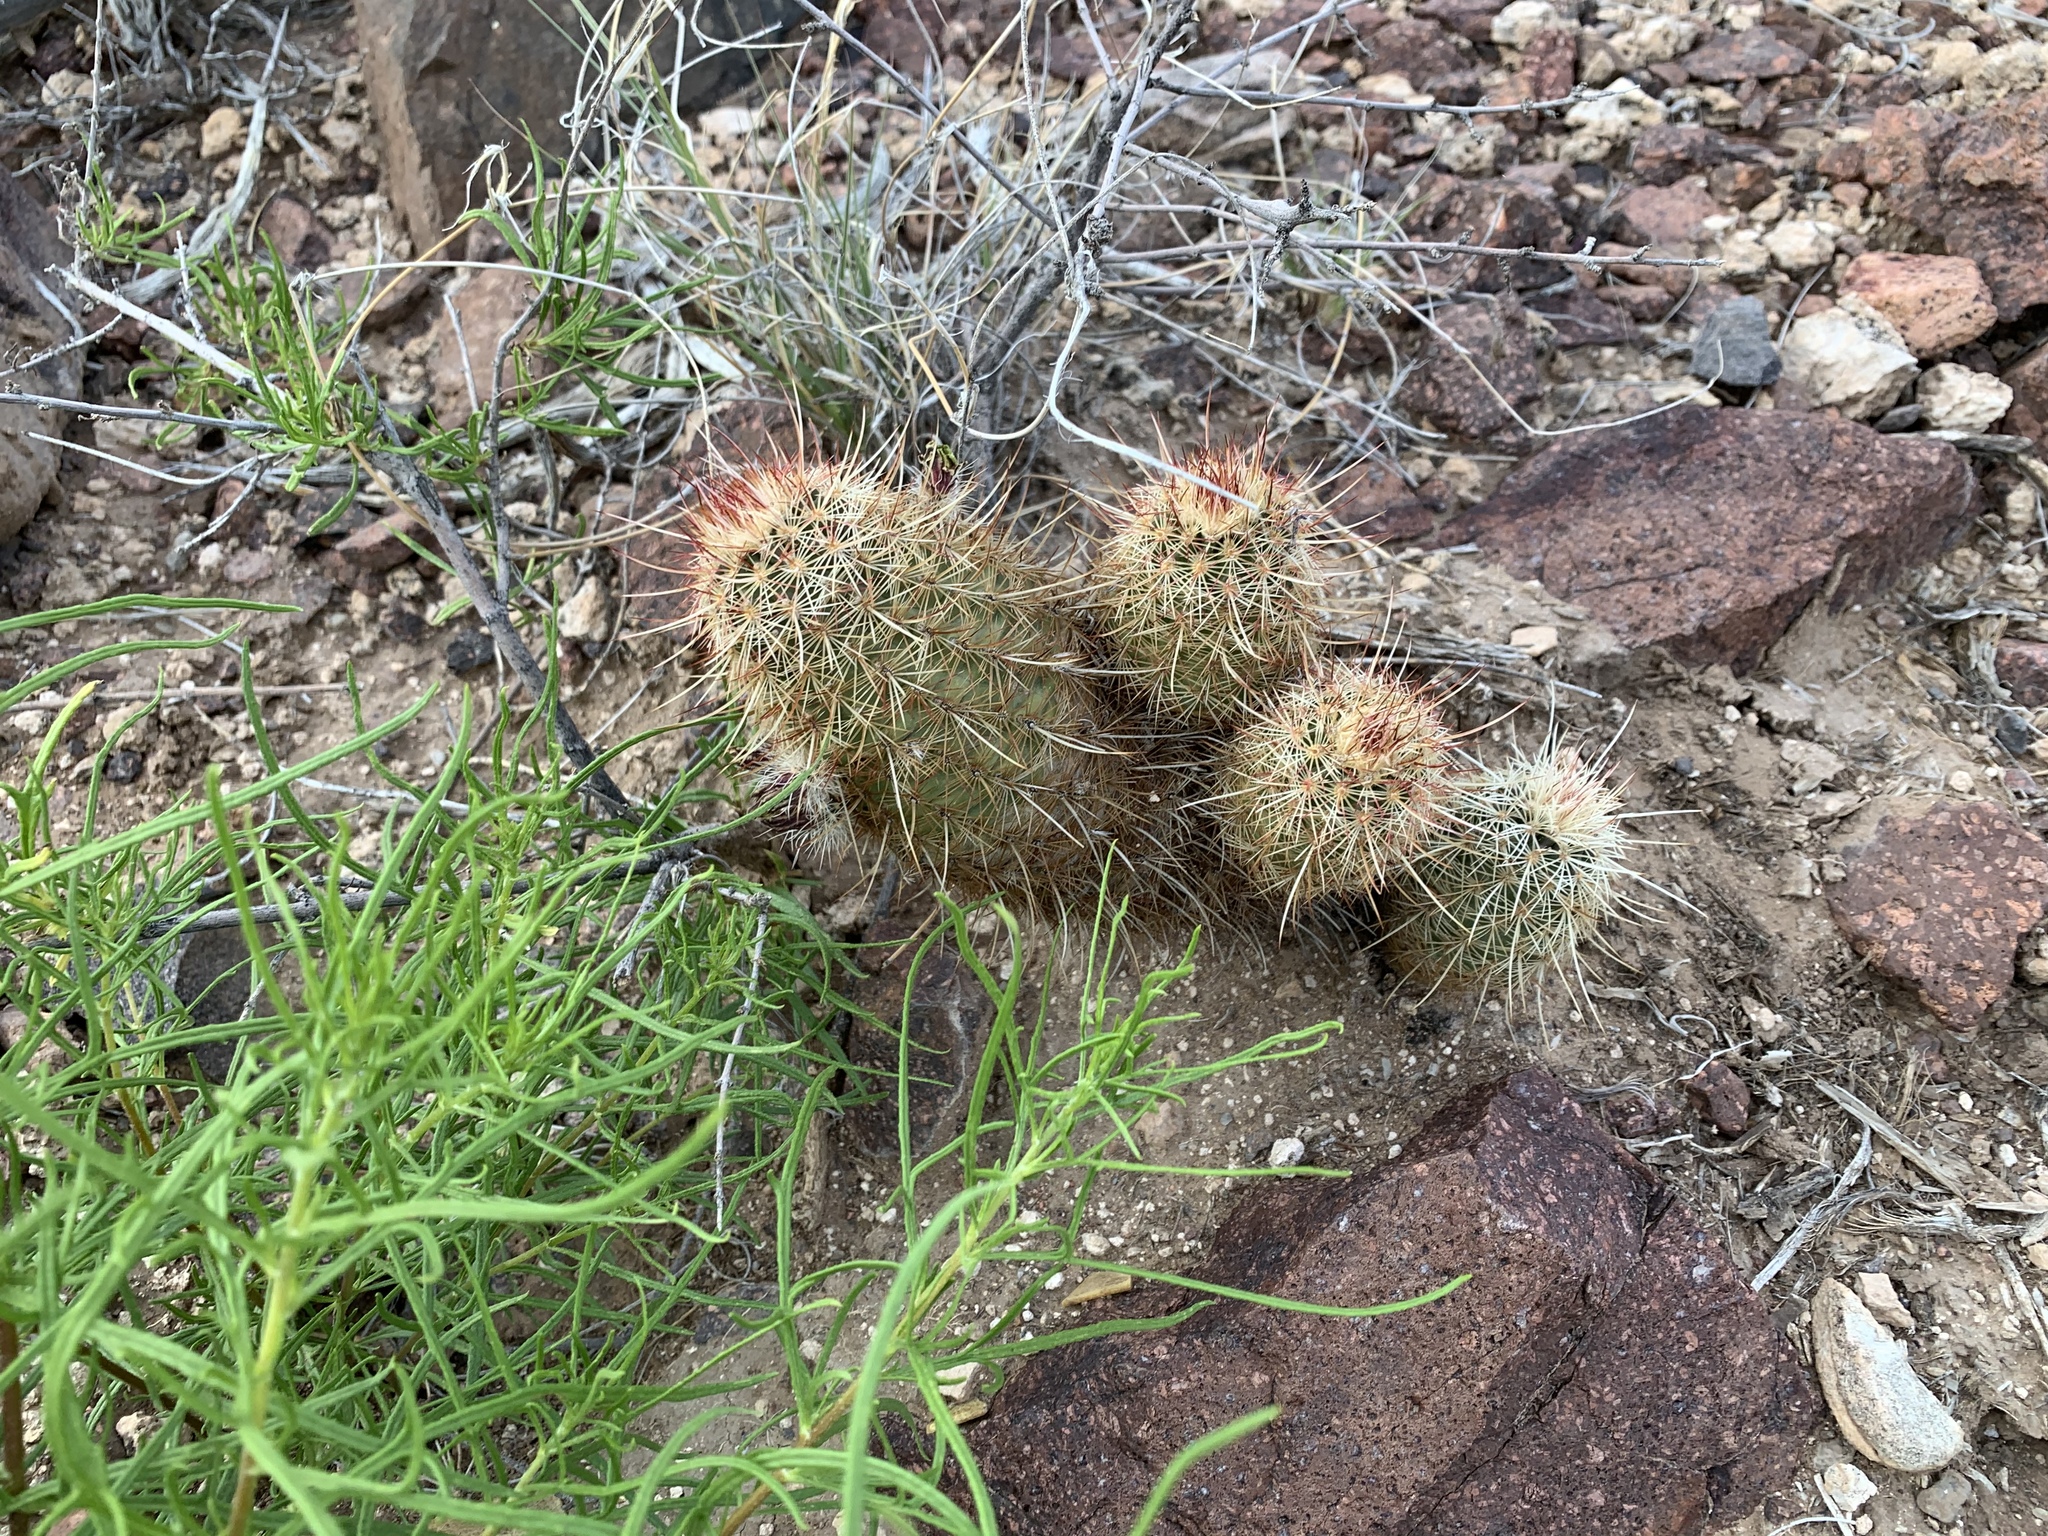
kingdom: Plantae
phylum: Tracheophyta
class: Magnoliopsida
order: Caryophyllales
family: Cactaceae
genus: Echinocereus
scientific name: Echinocereus viridiflorus
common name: Nylon hedgehog cactus
